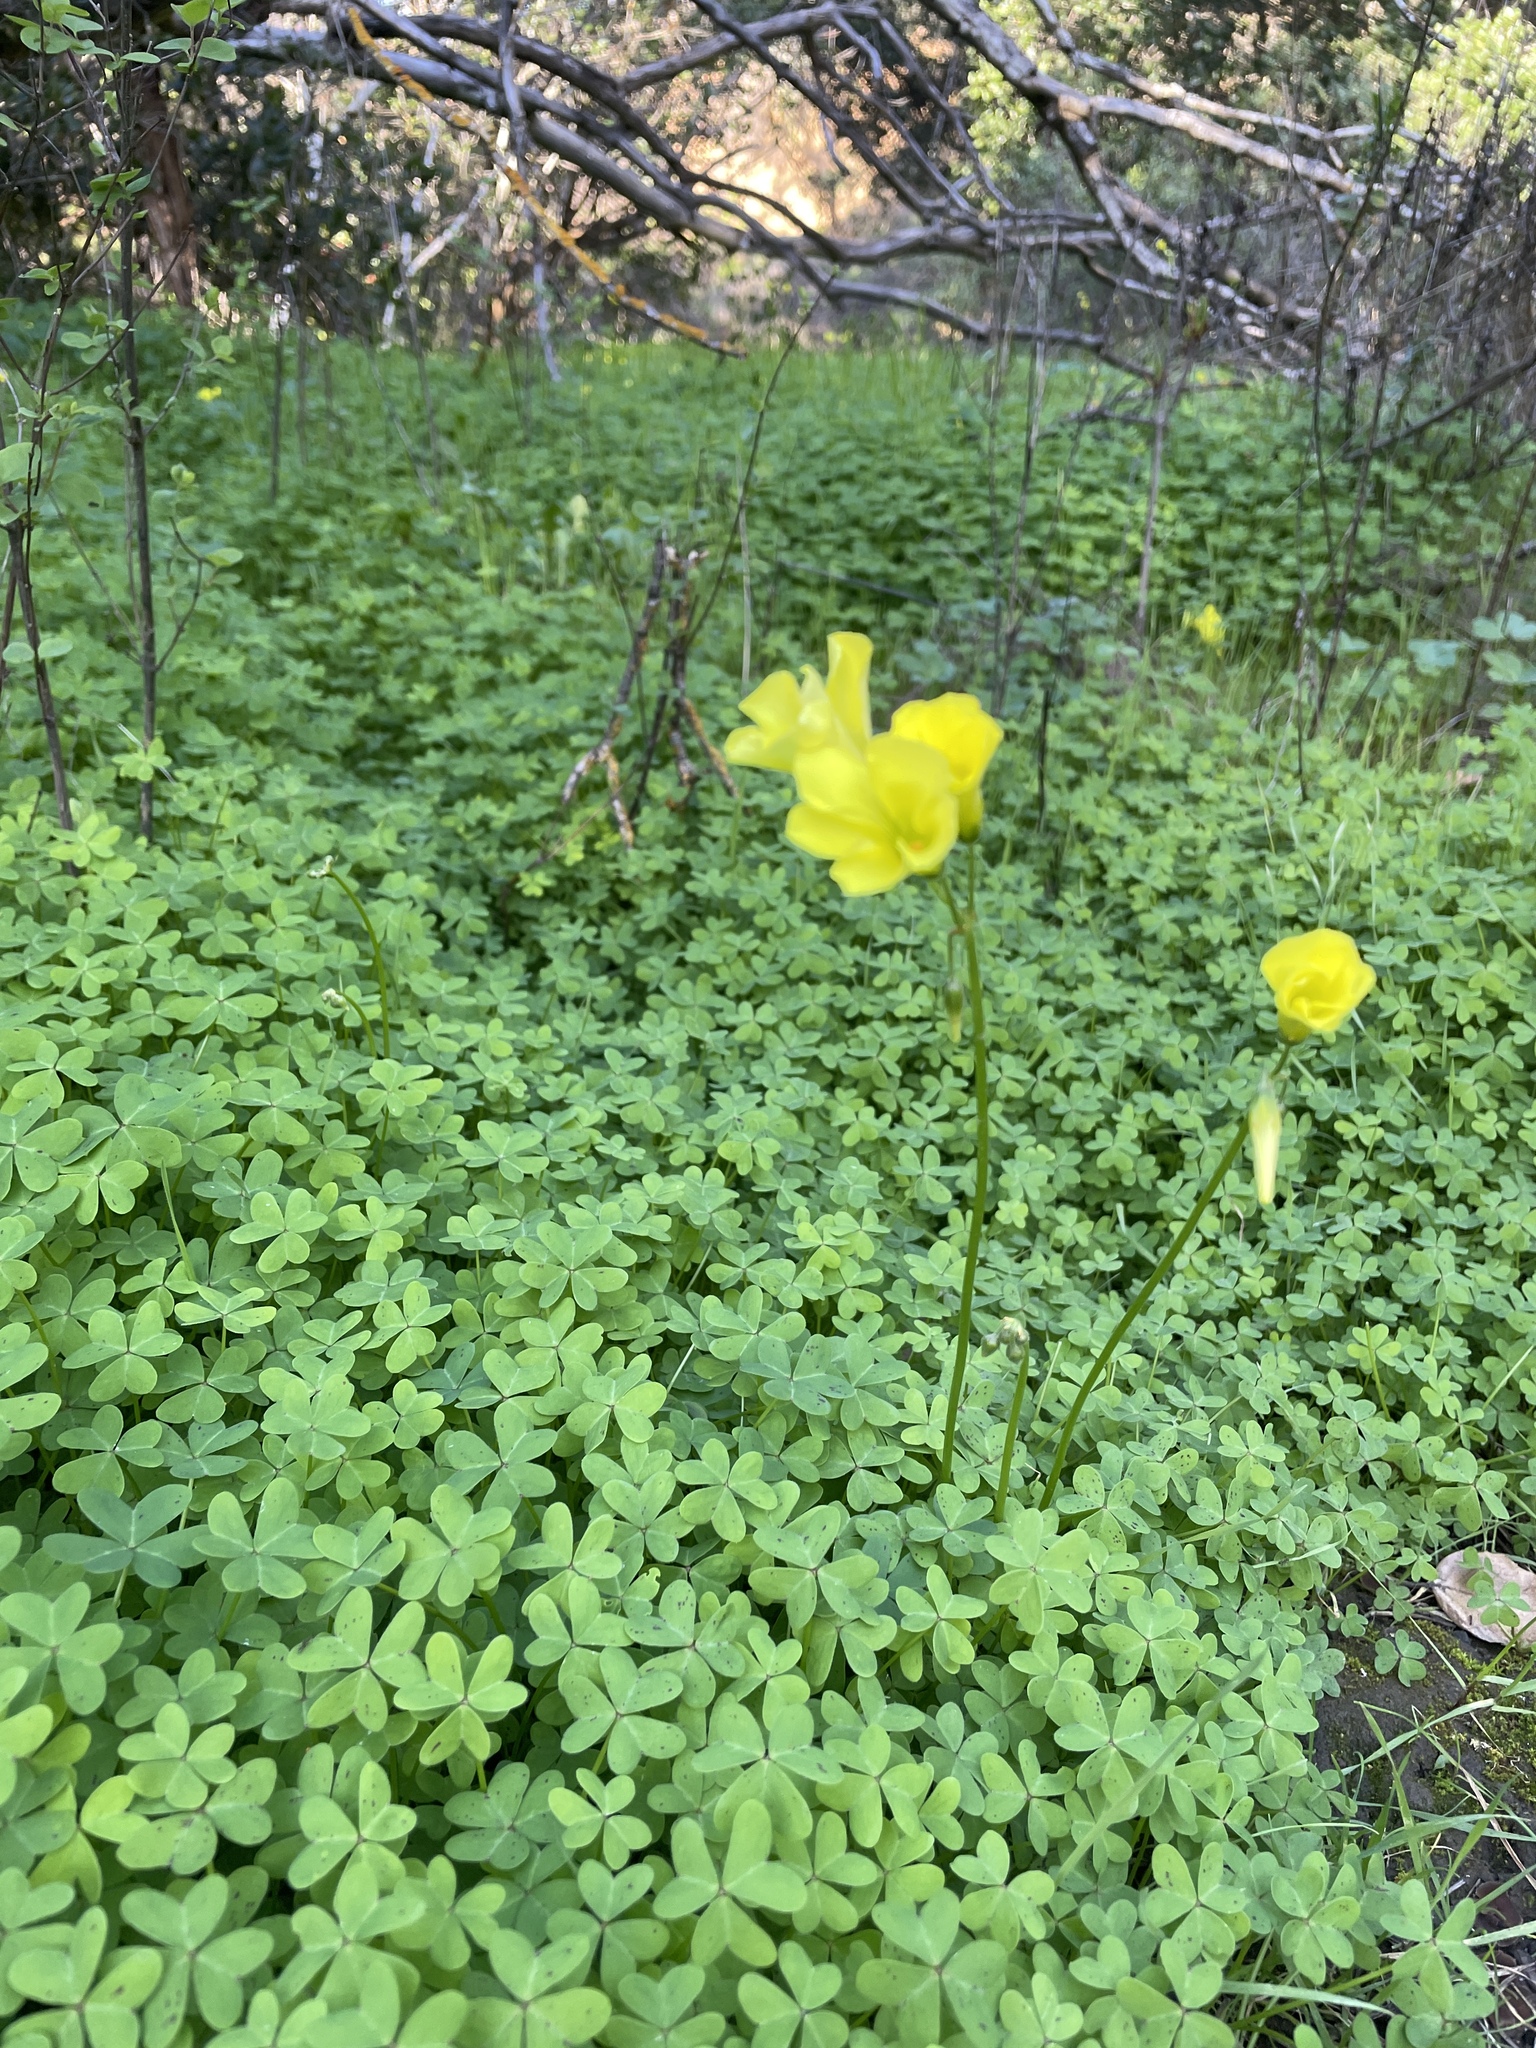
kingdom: Plantae
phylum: Tracheophyta
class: Magnoliopsida
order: Oxalidales
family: Oxalidaceae
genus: Oxalis
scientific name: Oxalis pes-caprae
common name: Bermuda-buttercup
